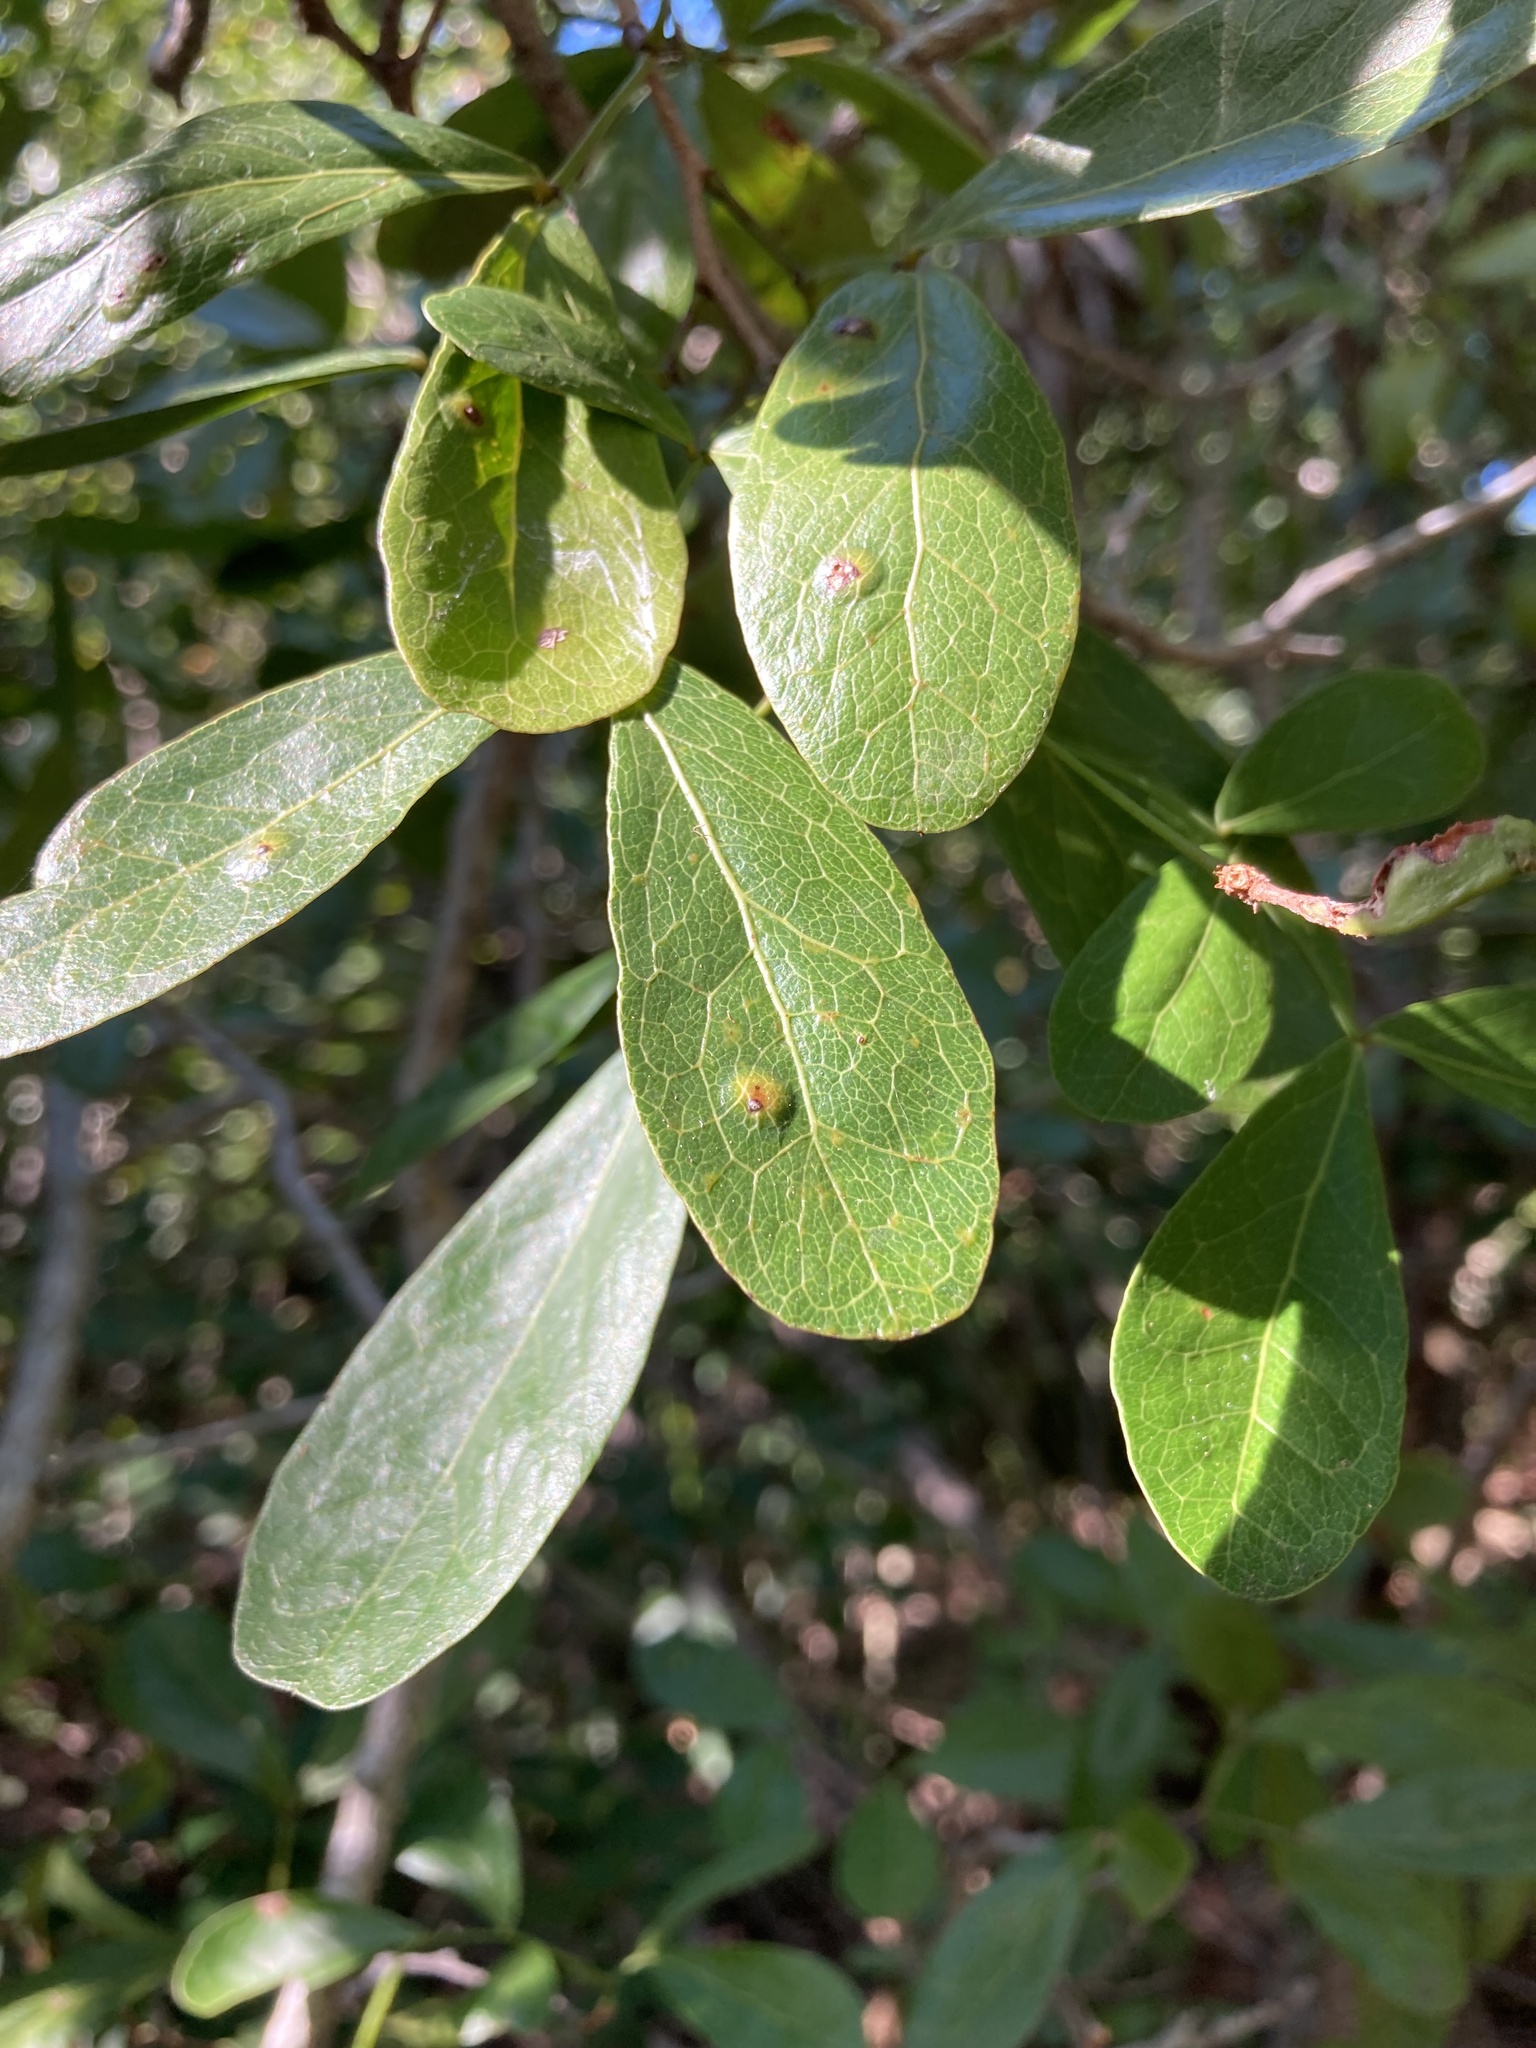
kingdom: Plantae
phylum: Tracheophyta
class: Magnoliopsida
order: Fabales
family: Fabaceae
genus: Pithecellobium
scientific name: Pithecellobium keyense
